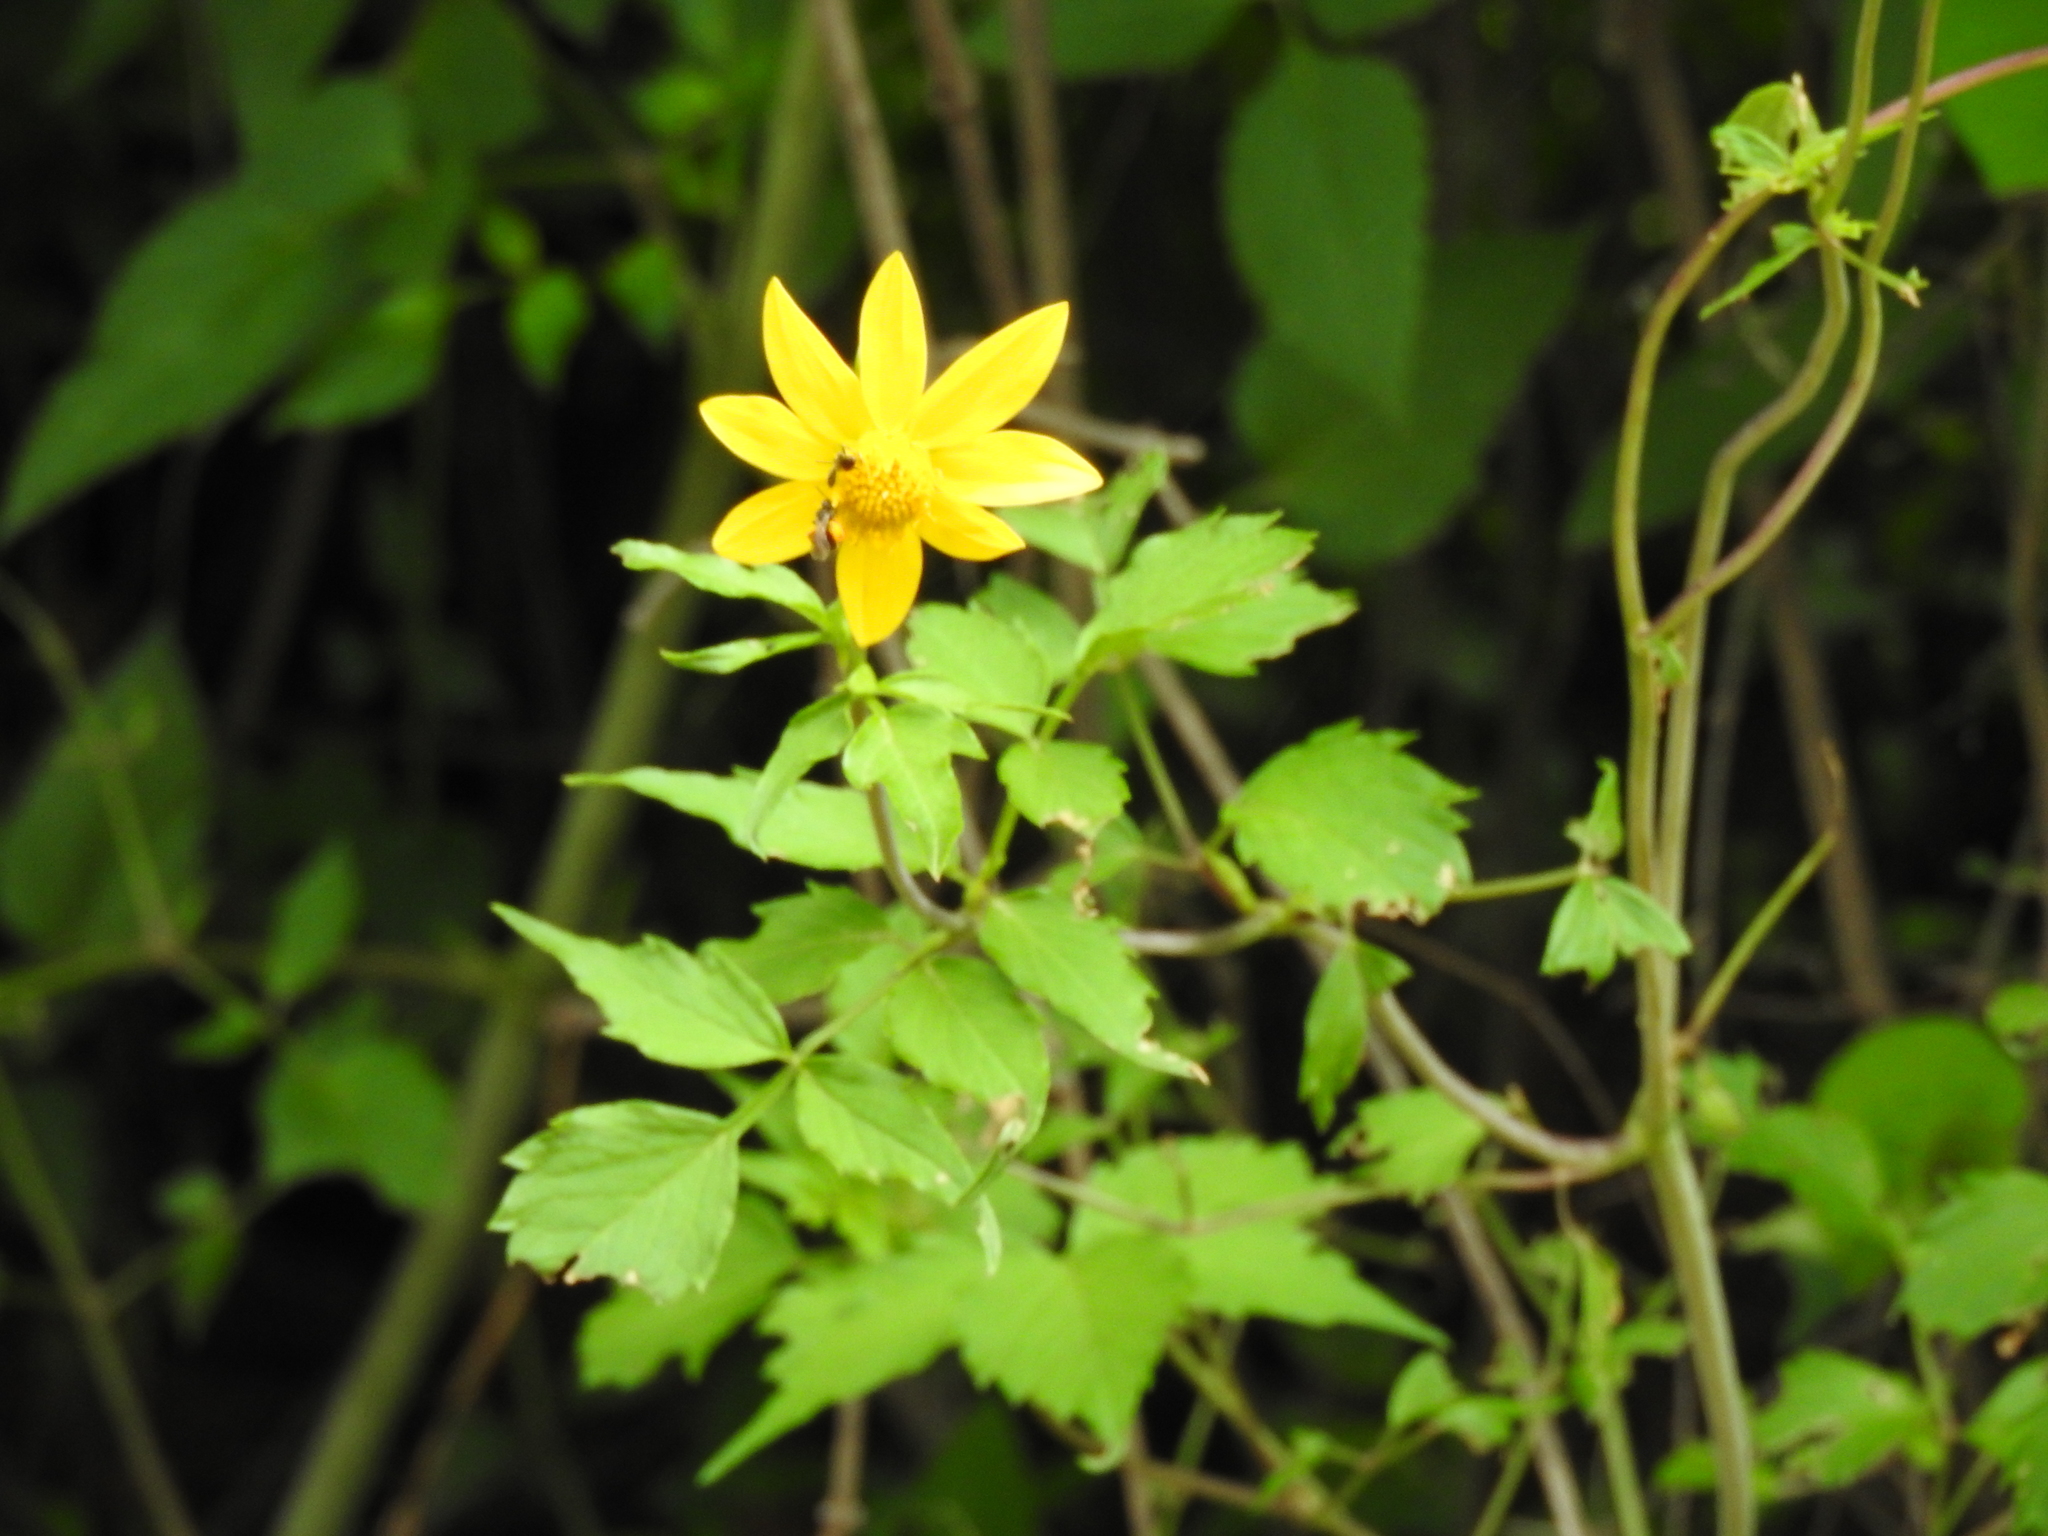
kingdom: Plantae
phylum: Tracheophyta
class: Magnoliopsida
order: Asterales
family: Asteraceae
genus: Dahlia
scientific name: Dahlia coccinea
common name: Red dahlia
